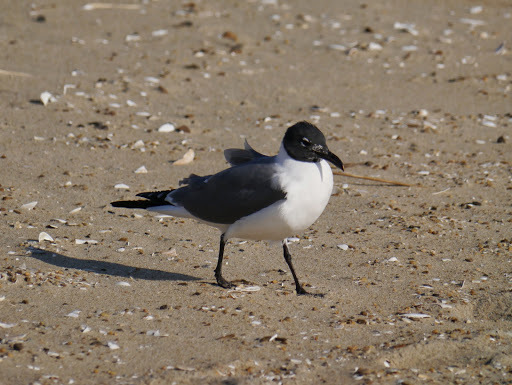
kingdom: Animalia
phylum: Chordata
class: Aves
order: Charadriiformes
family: Laridae
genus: Leucophaeus
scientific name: Leucophaeus atricilla
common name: Laughing gull
